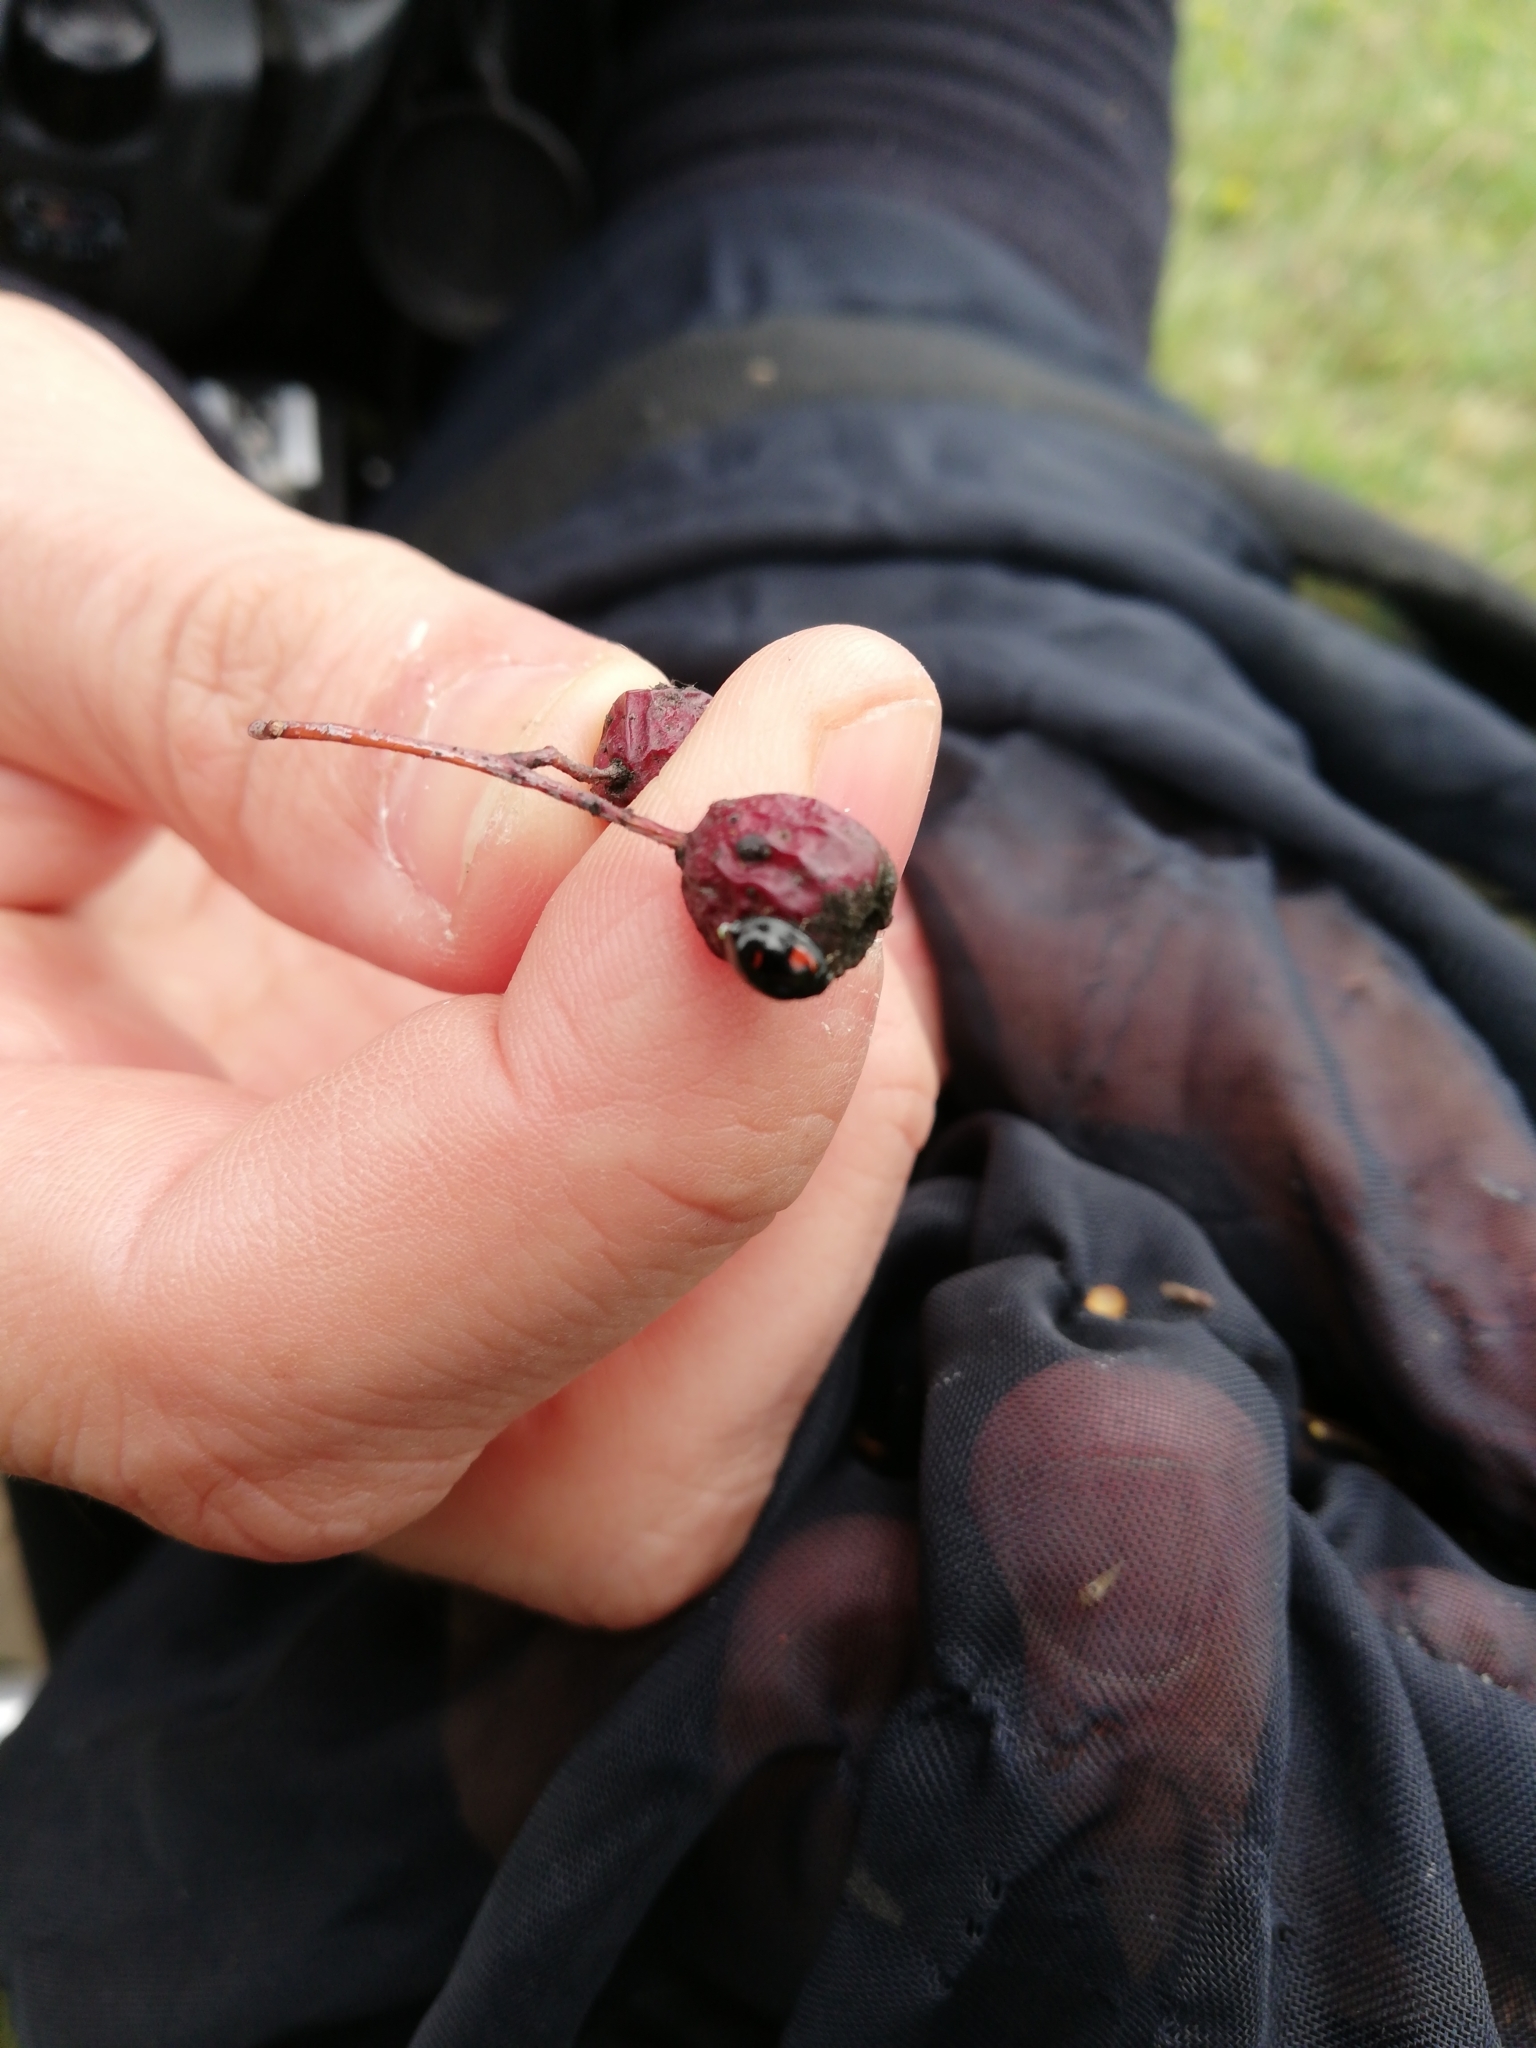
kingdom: Animalia
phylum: Arthropoda
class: Insecta
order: Coleoptera
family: Coccinellidae
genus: Brumus
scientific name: Brumus quadripustulatus
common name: Ladybird beetle
